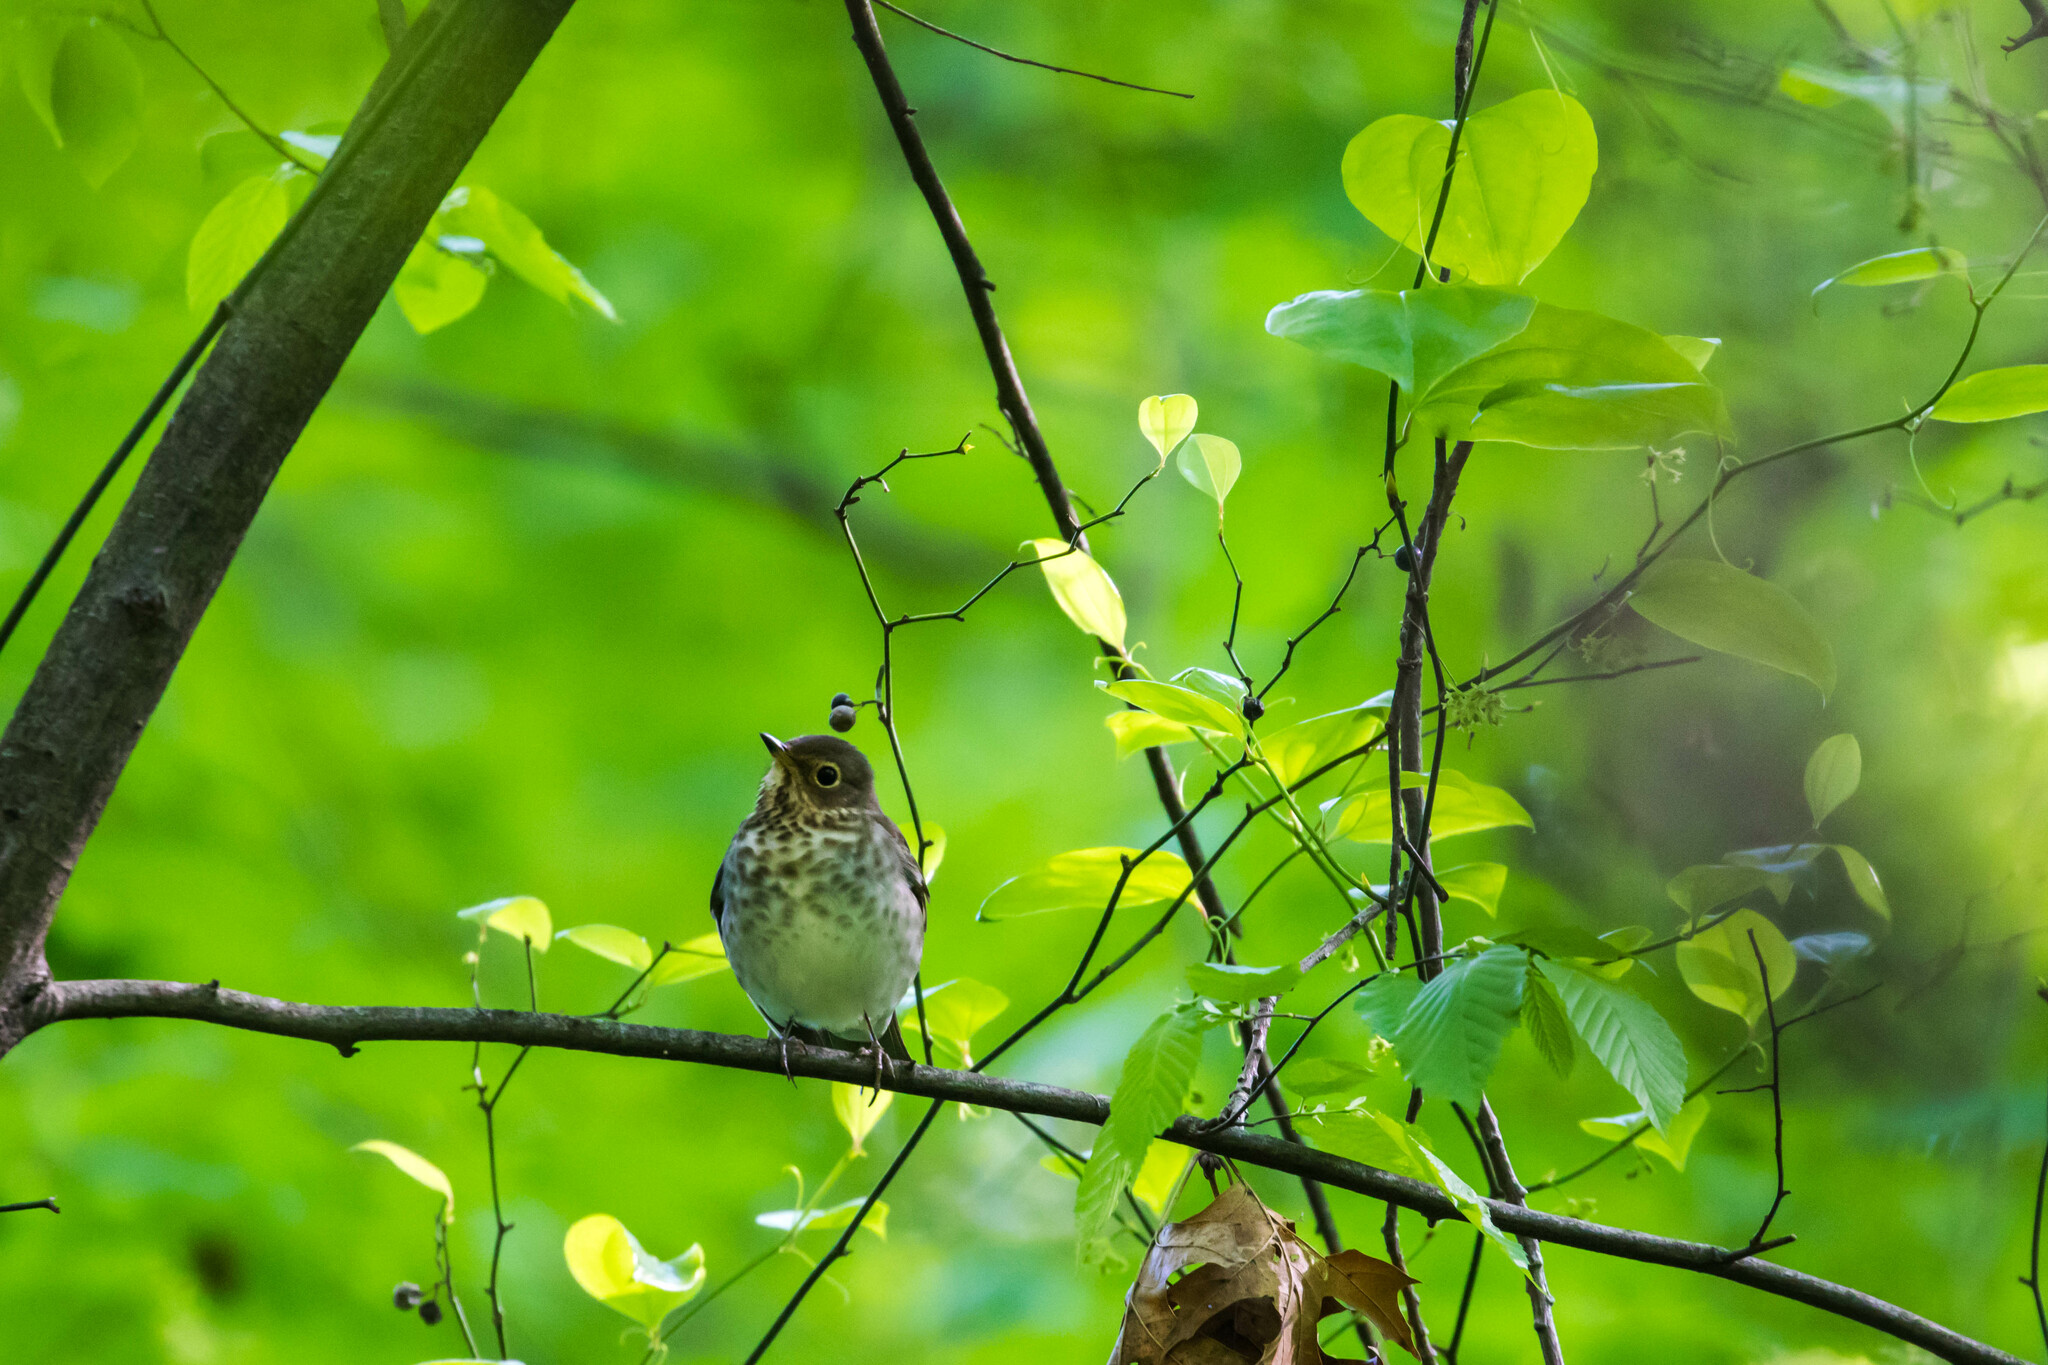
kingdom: Animalia
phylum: Chordata
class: Aves
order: Passeriformes
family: Turdidae
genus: Catharus
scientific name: Catharus ustulatus
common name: Swainson's thrush
